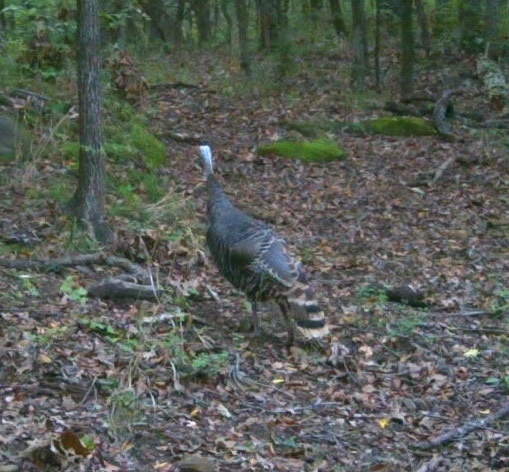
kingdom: Animalia
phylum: Chordata
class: Aves
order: Galliformes
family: Phasianidae
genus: Meleagris
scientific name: Meleagris gallopavo
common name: Wild turkey
